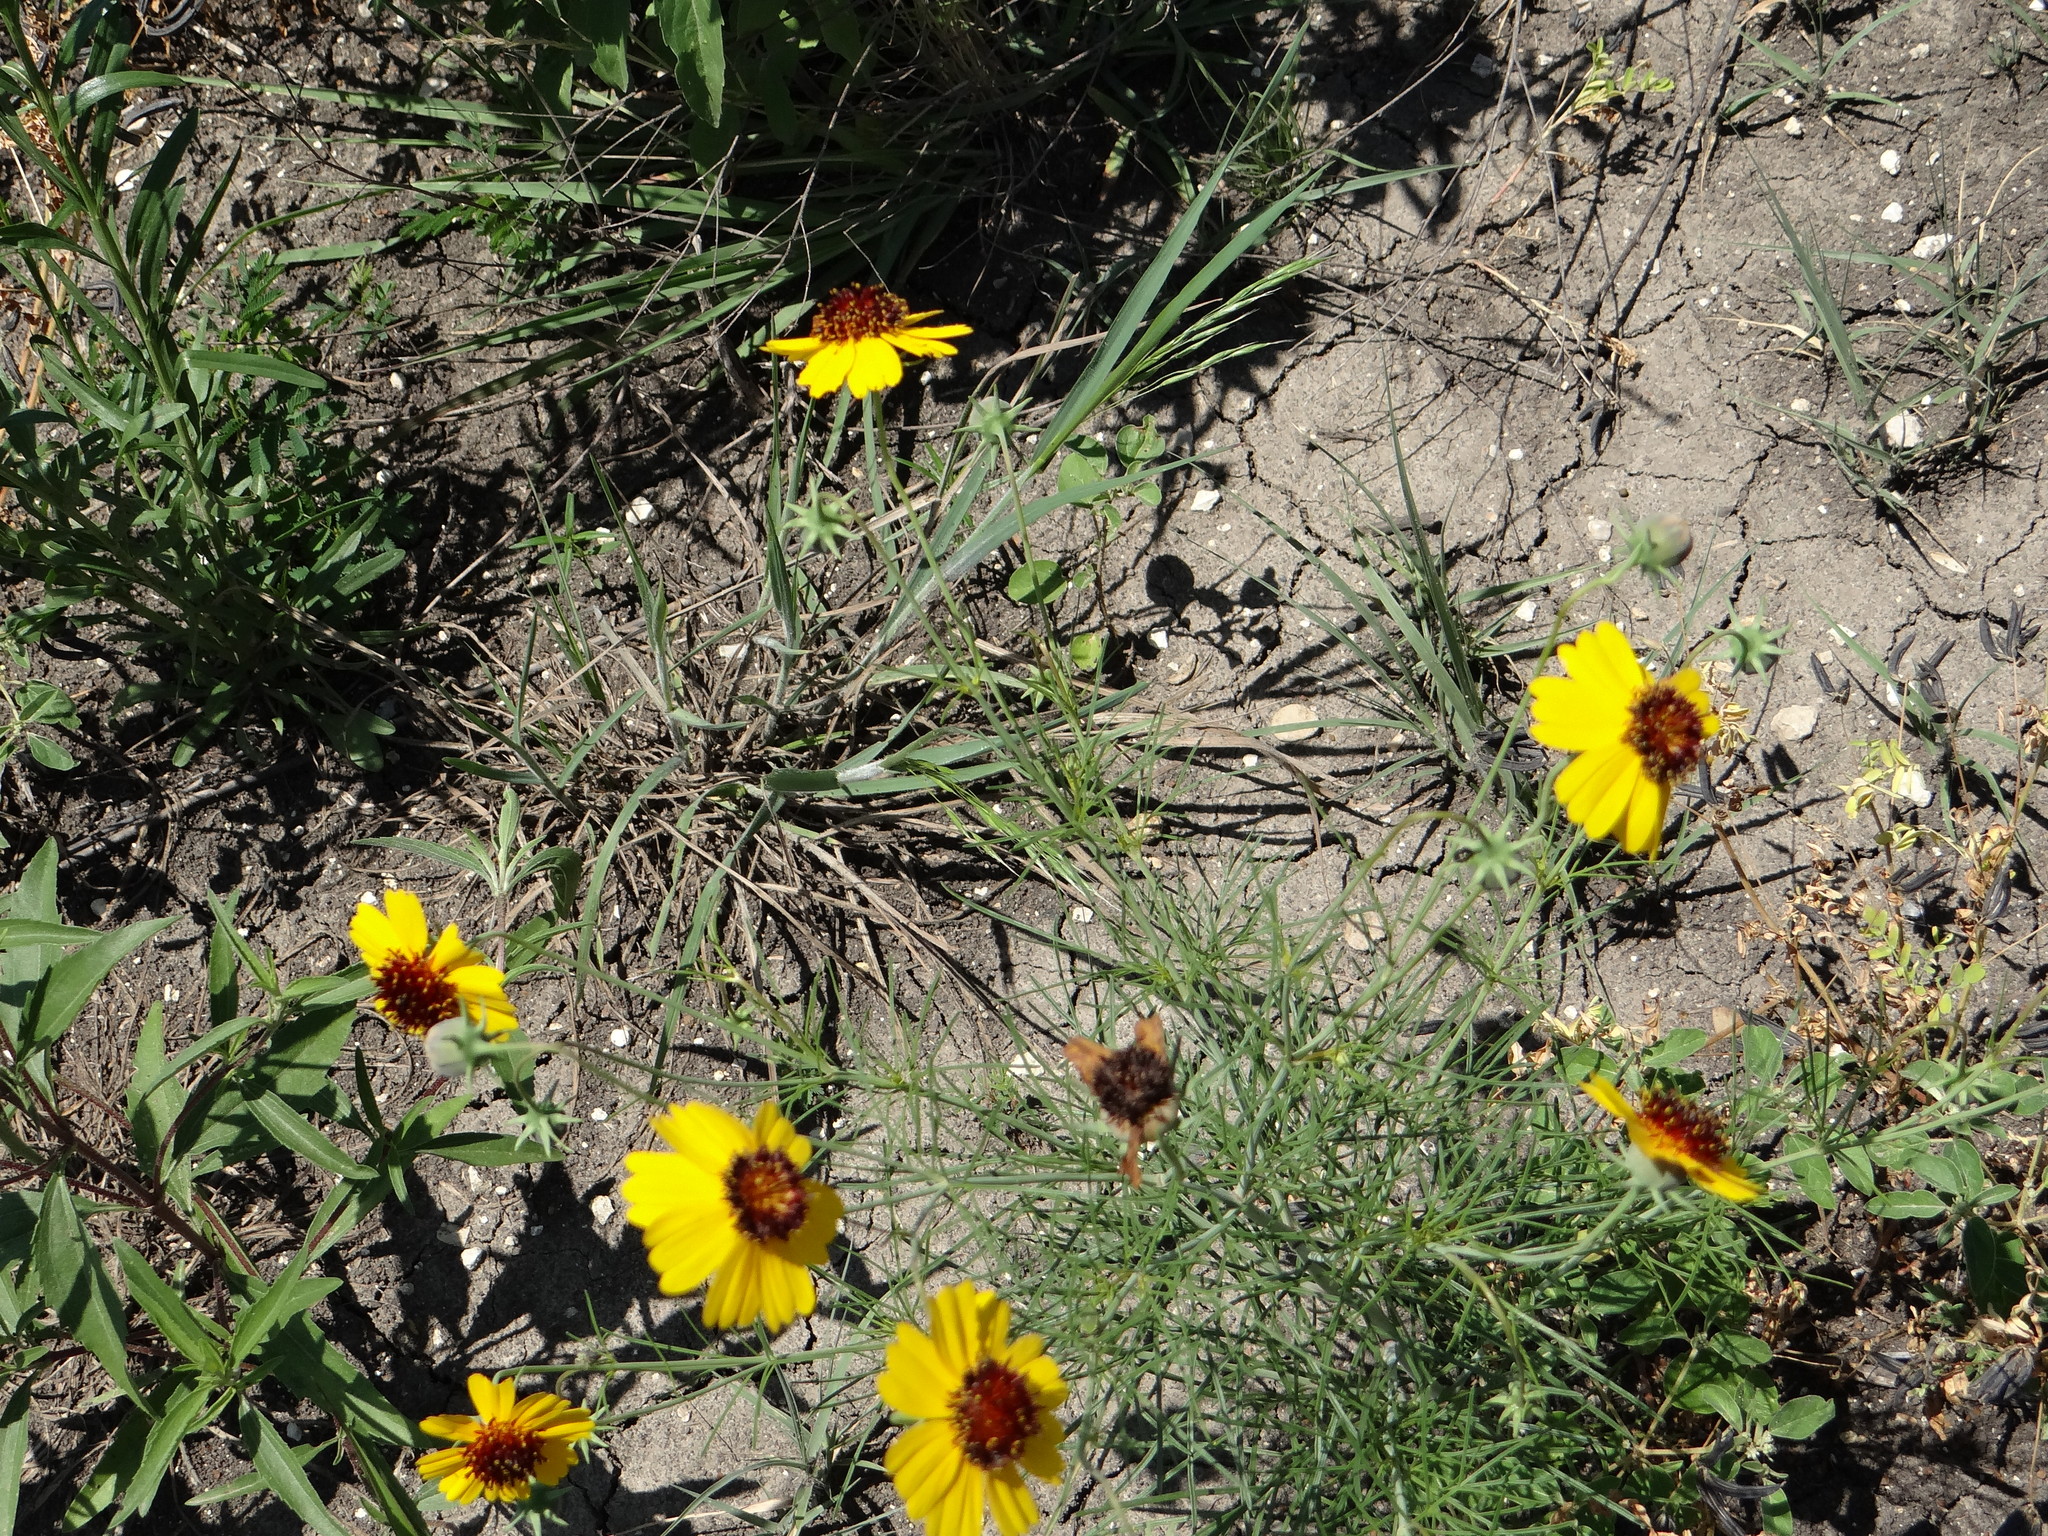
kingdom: Plantae
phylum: Tracheophyta
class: Magnoliopsida
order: Asterales
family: Asteraceae
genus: Thelesperma
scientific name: Thelesperma filifolium
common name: Stiff greenthread
